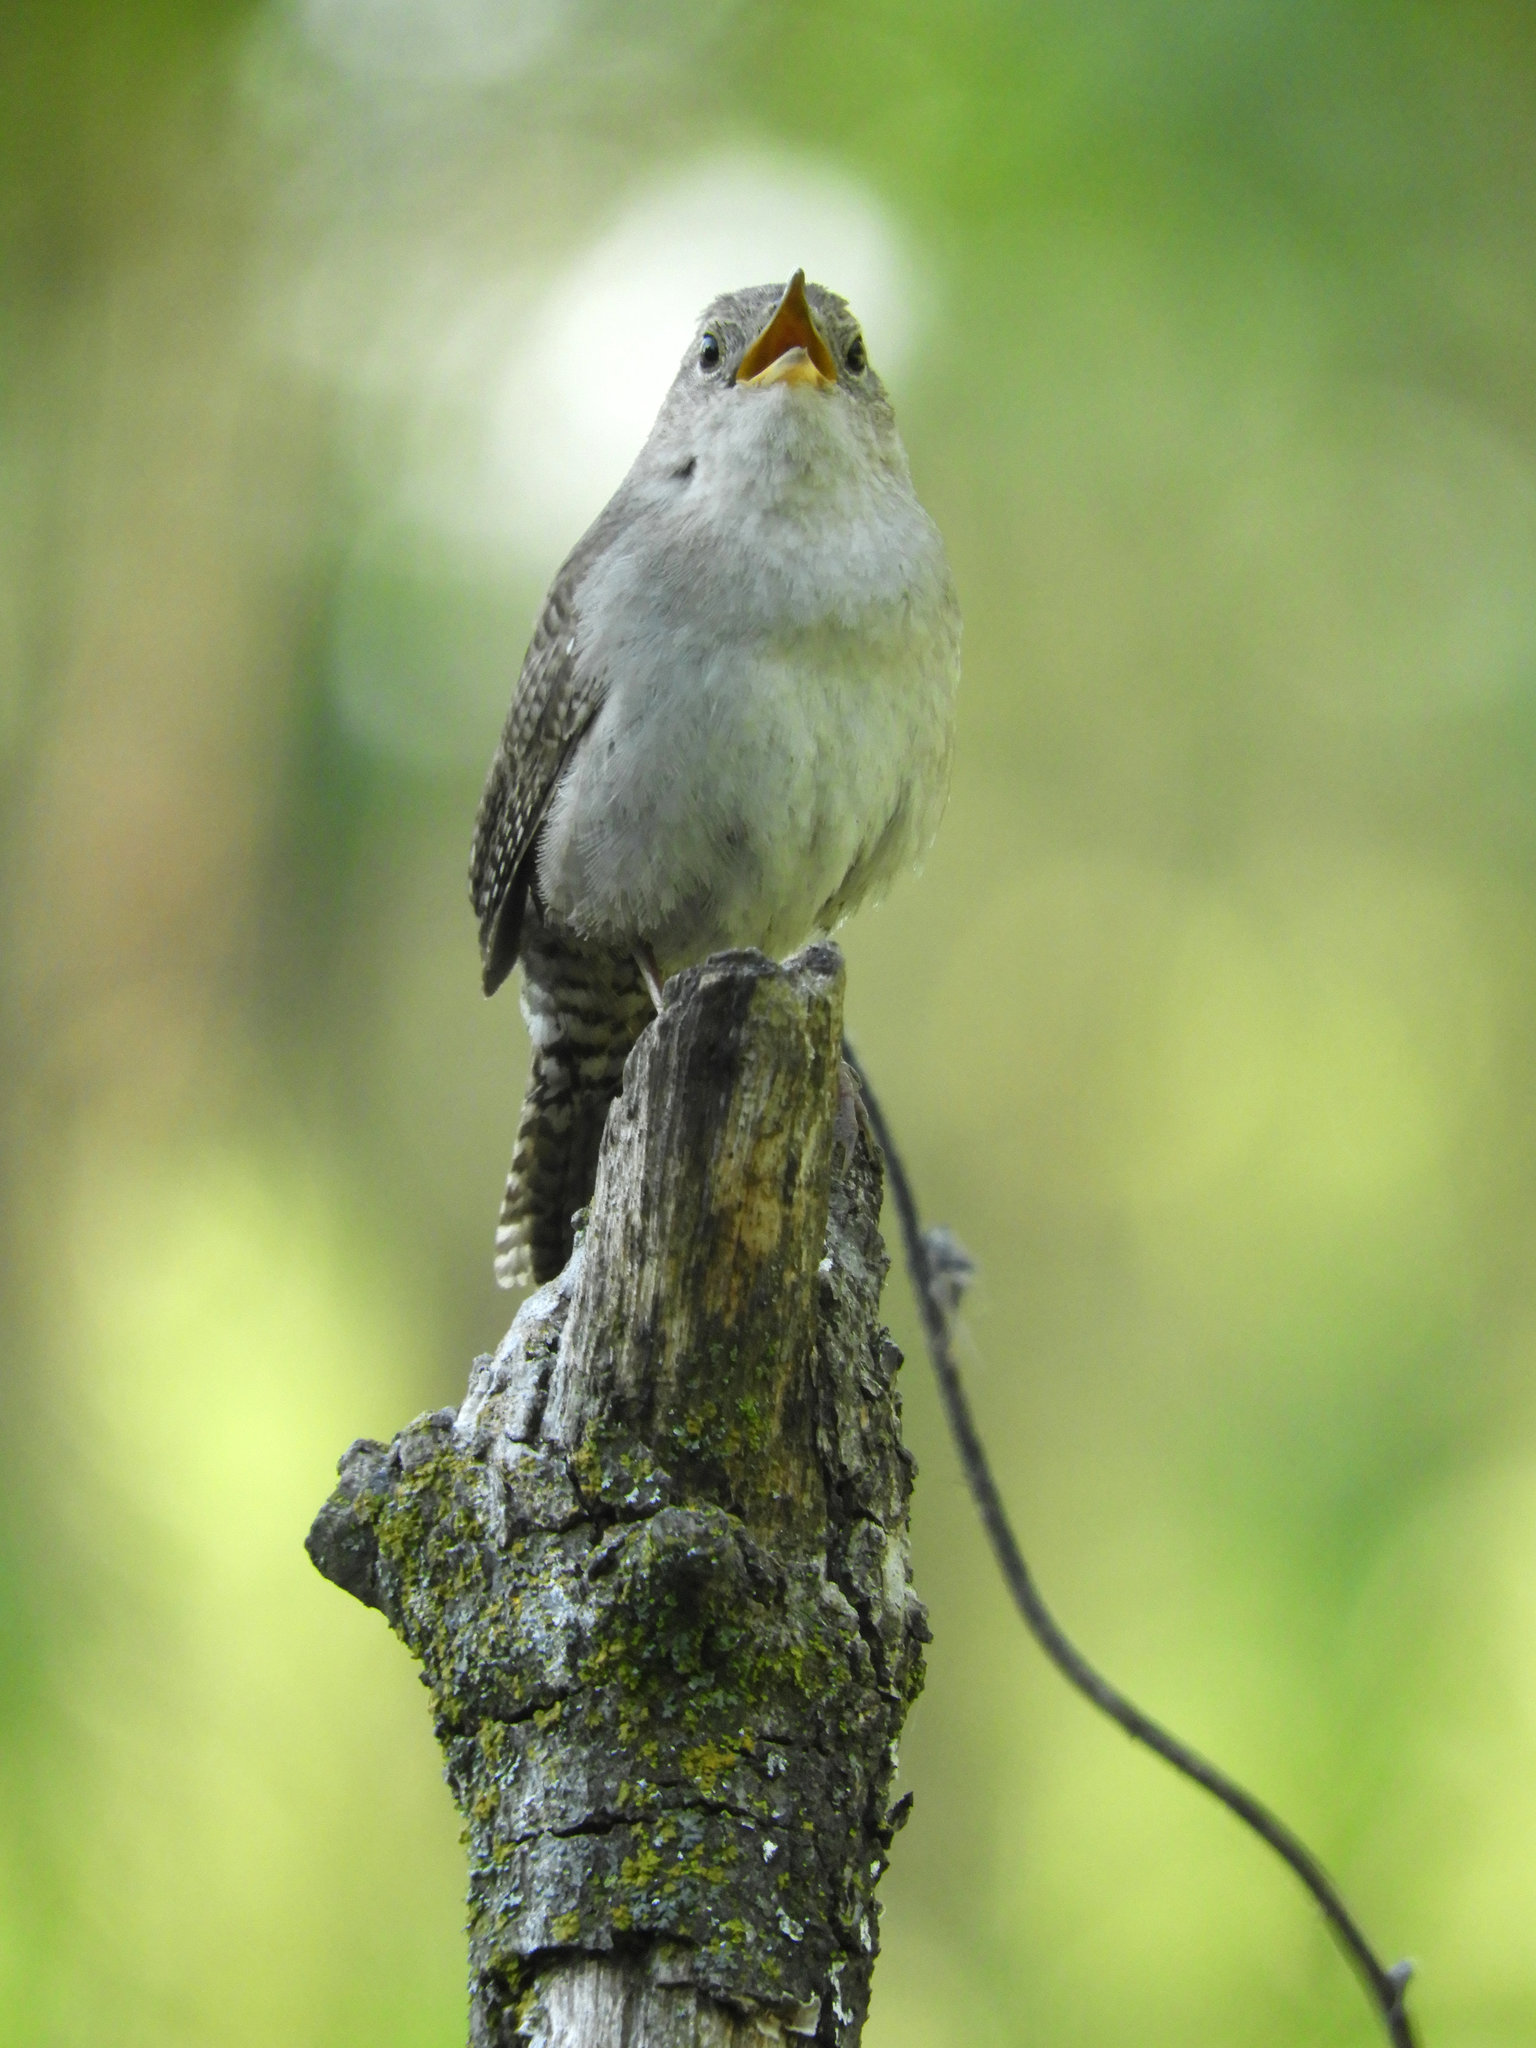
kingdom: Animalia
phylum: Chordata
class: Aves
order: Passeriformes
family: Troglodytidae
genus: Troglodytes
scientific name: Troglodytes aedon
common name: House wren
